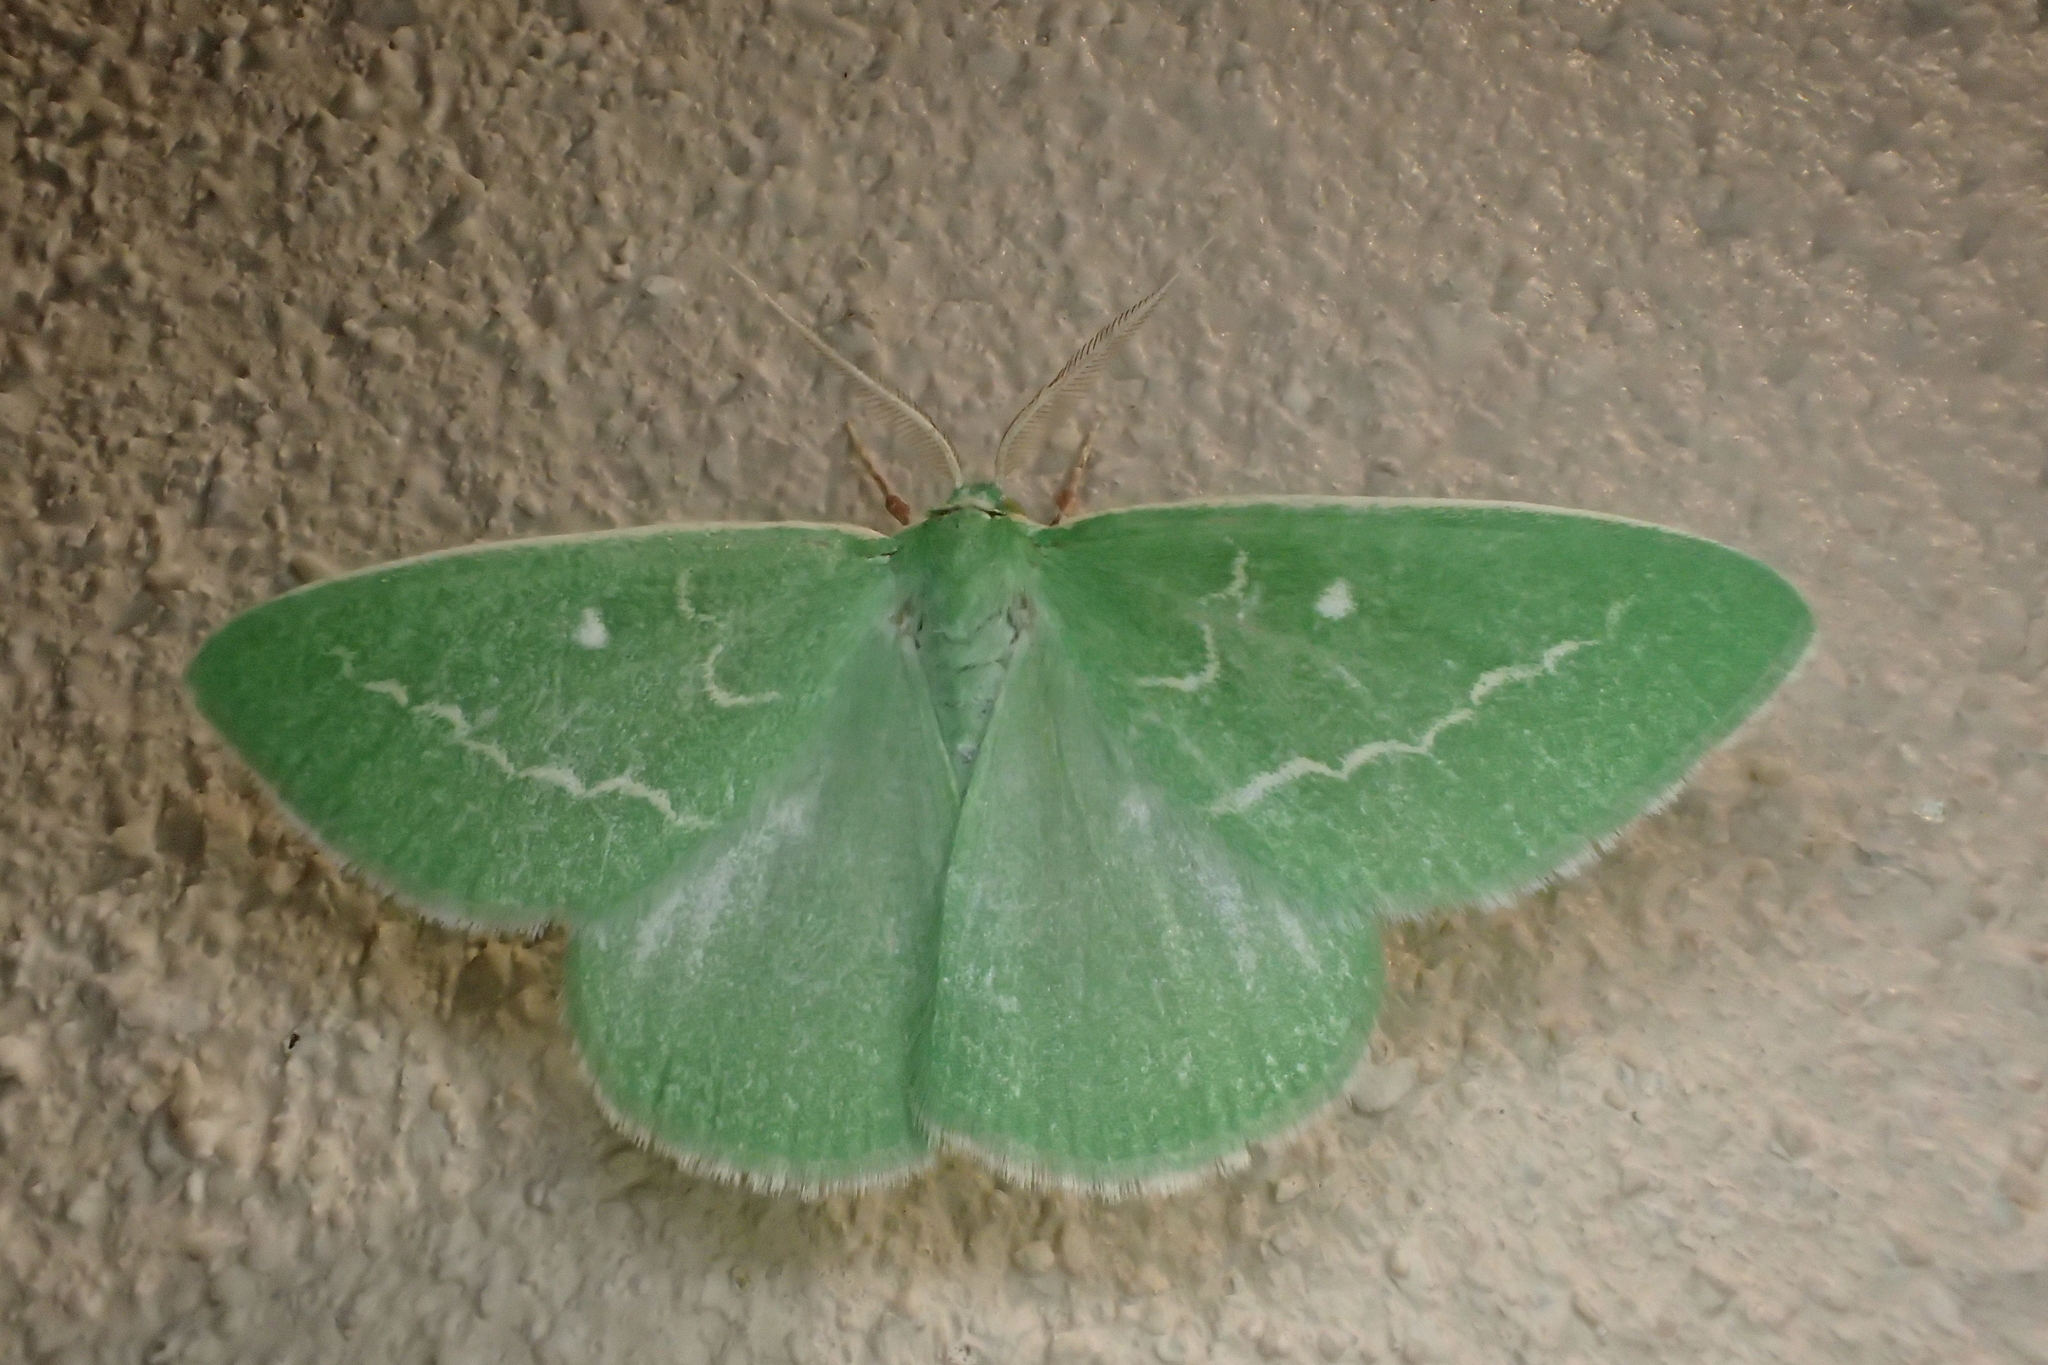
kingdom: Animalia
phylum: Arthropoda
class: Insecta
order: Lepidoptera
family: Geometridae
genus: Thetidia
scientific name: Thetidia smaragdaria
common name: Essex emerald
